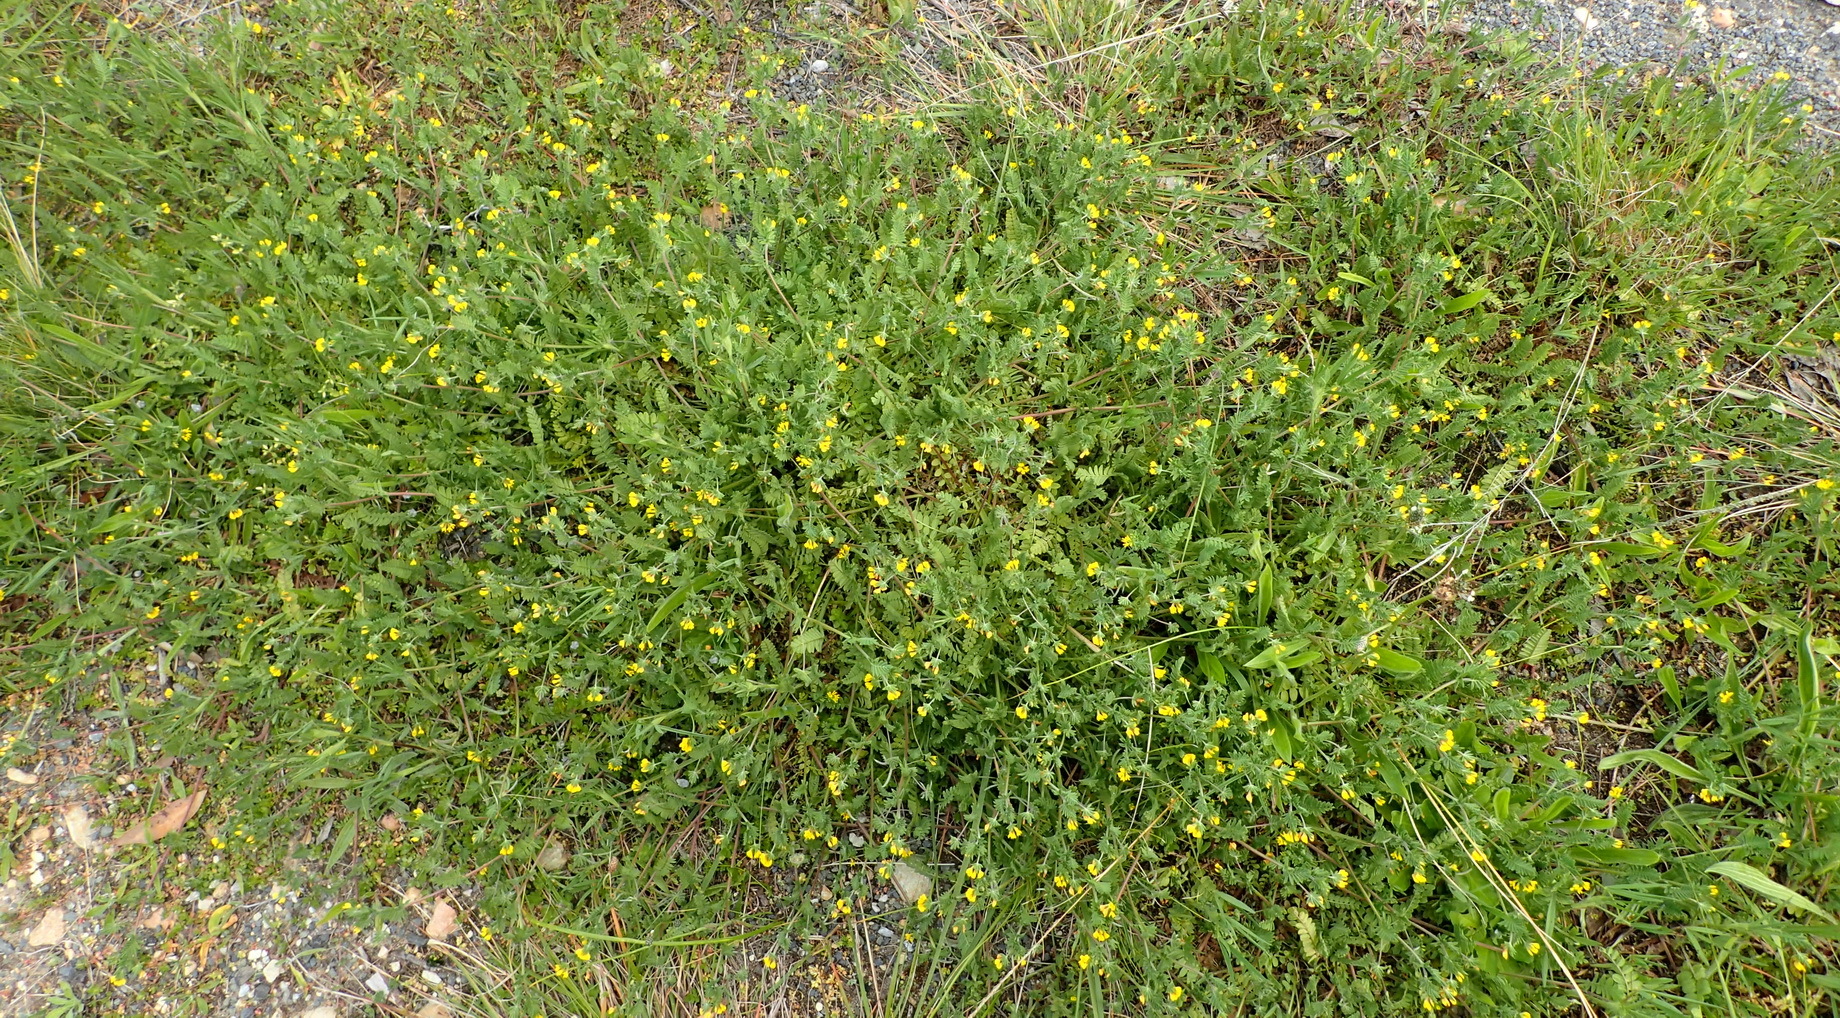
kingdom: Plantae
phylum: Tracheophyta
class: Magnoliopsida
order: Fabales
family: Fabaceae
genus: Ornithopus
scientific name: Ornithopus compressus
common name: Yellow serradella
